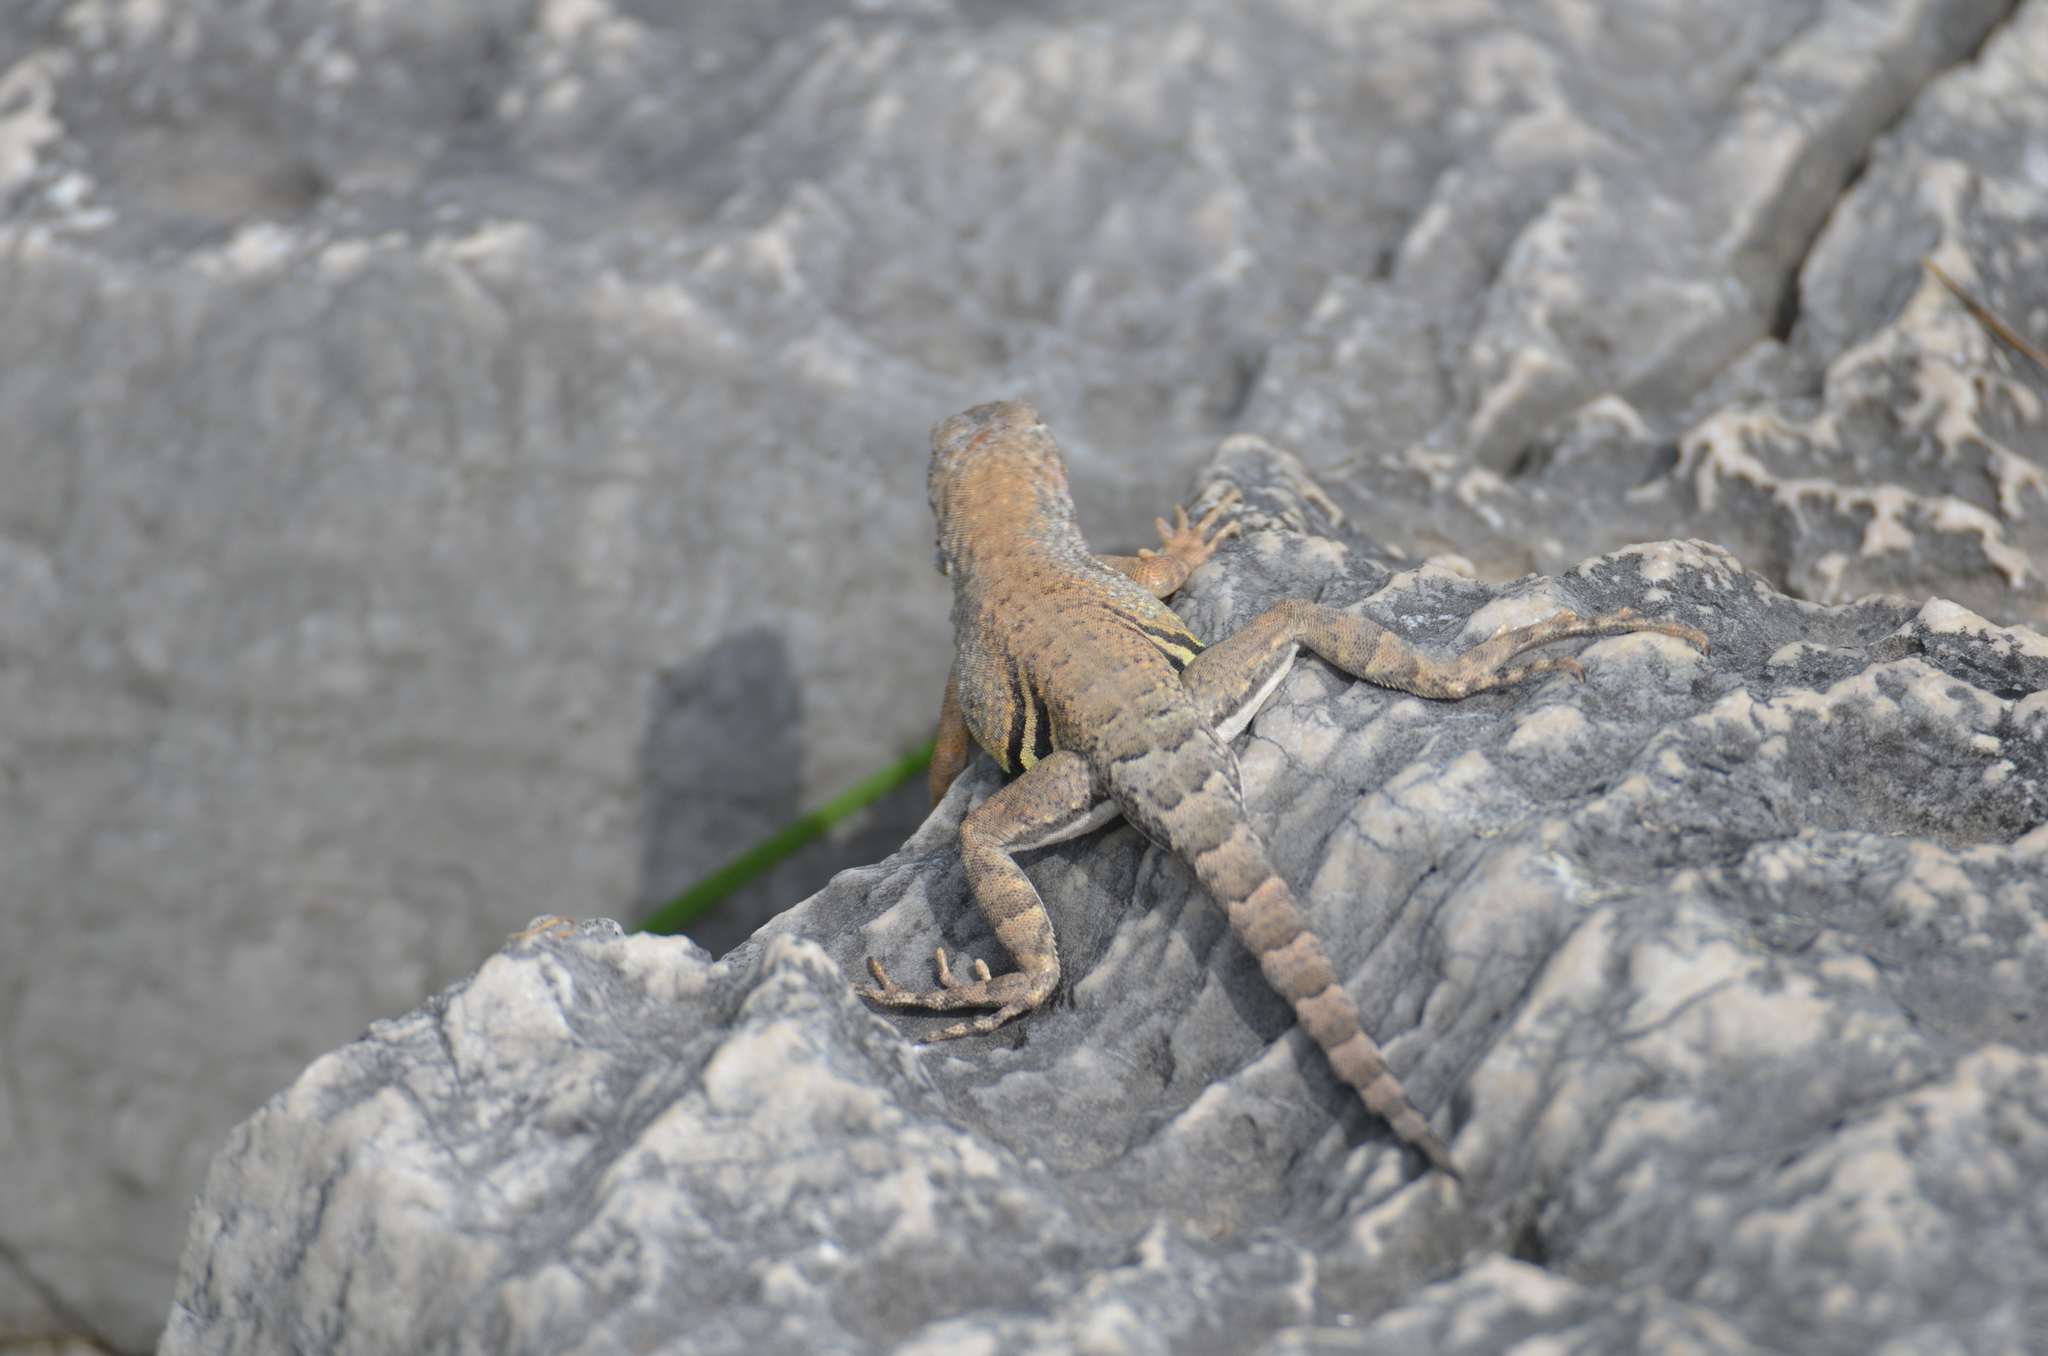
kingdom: Animalia
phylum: Chordata
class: Squamata
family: Phrynosomatidae
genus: Cophosaurus
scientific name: Cophosaurus texanus
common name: Greater earless lizard
